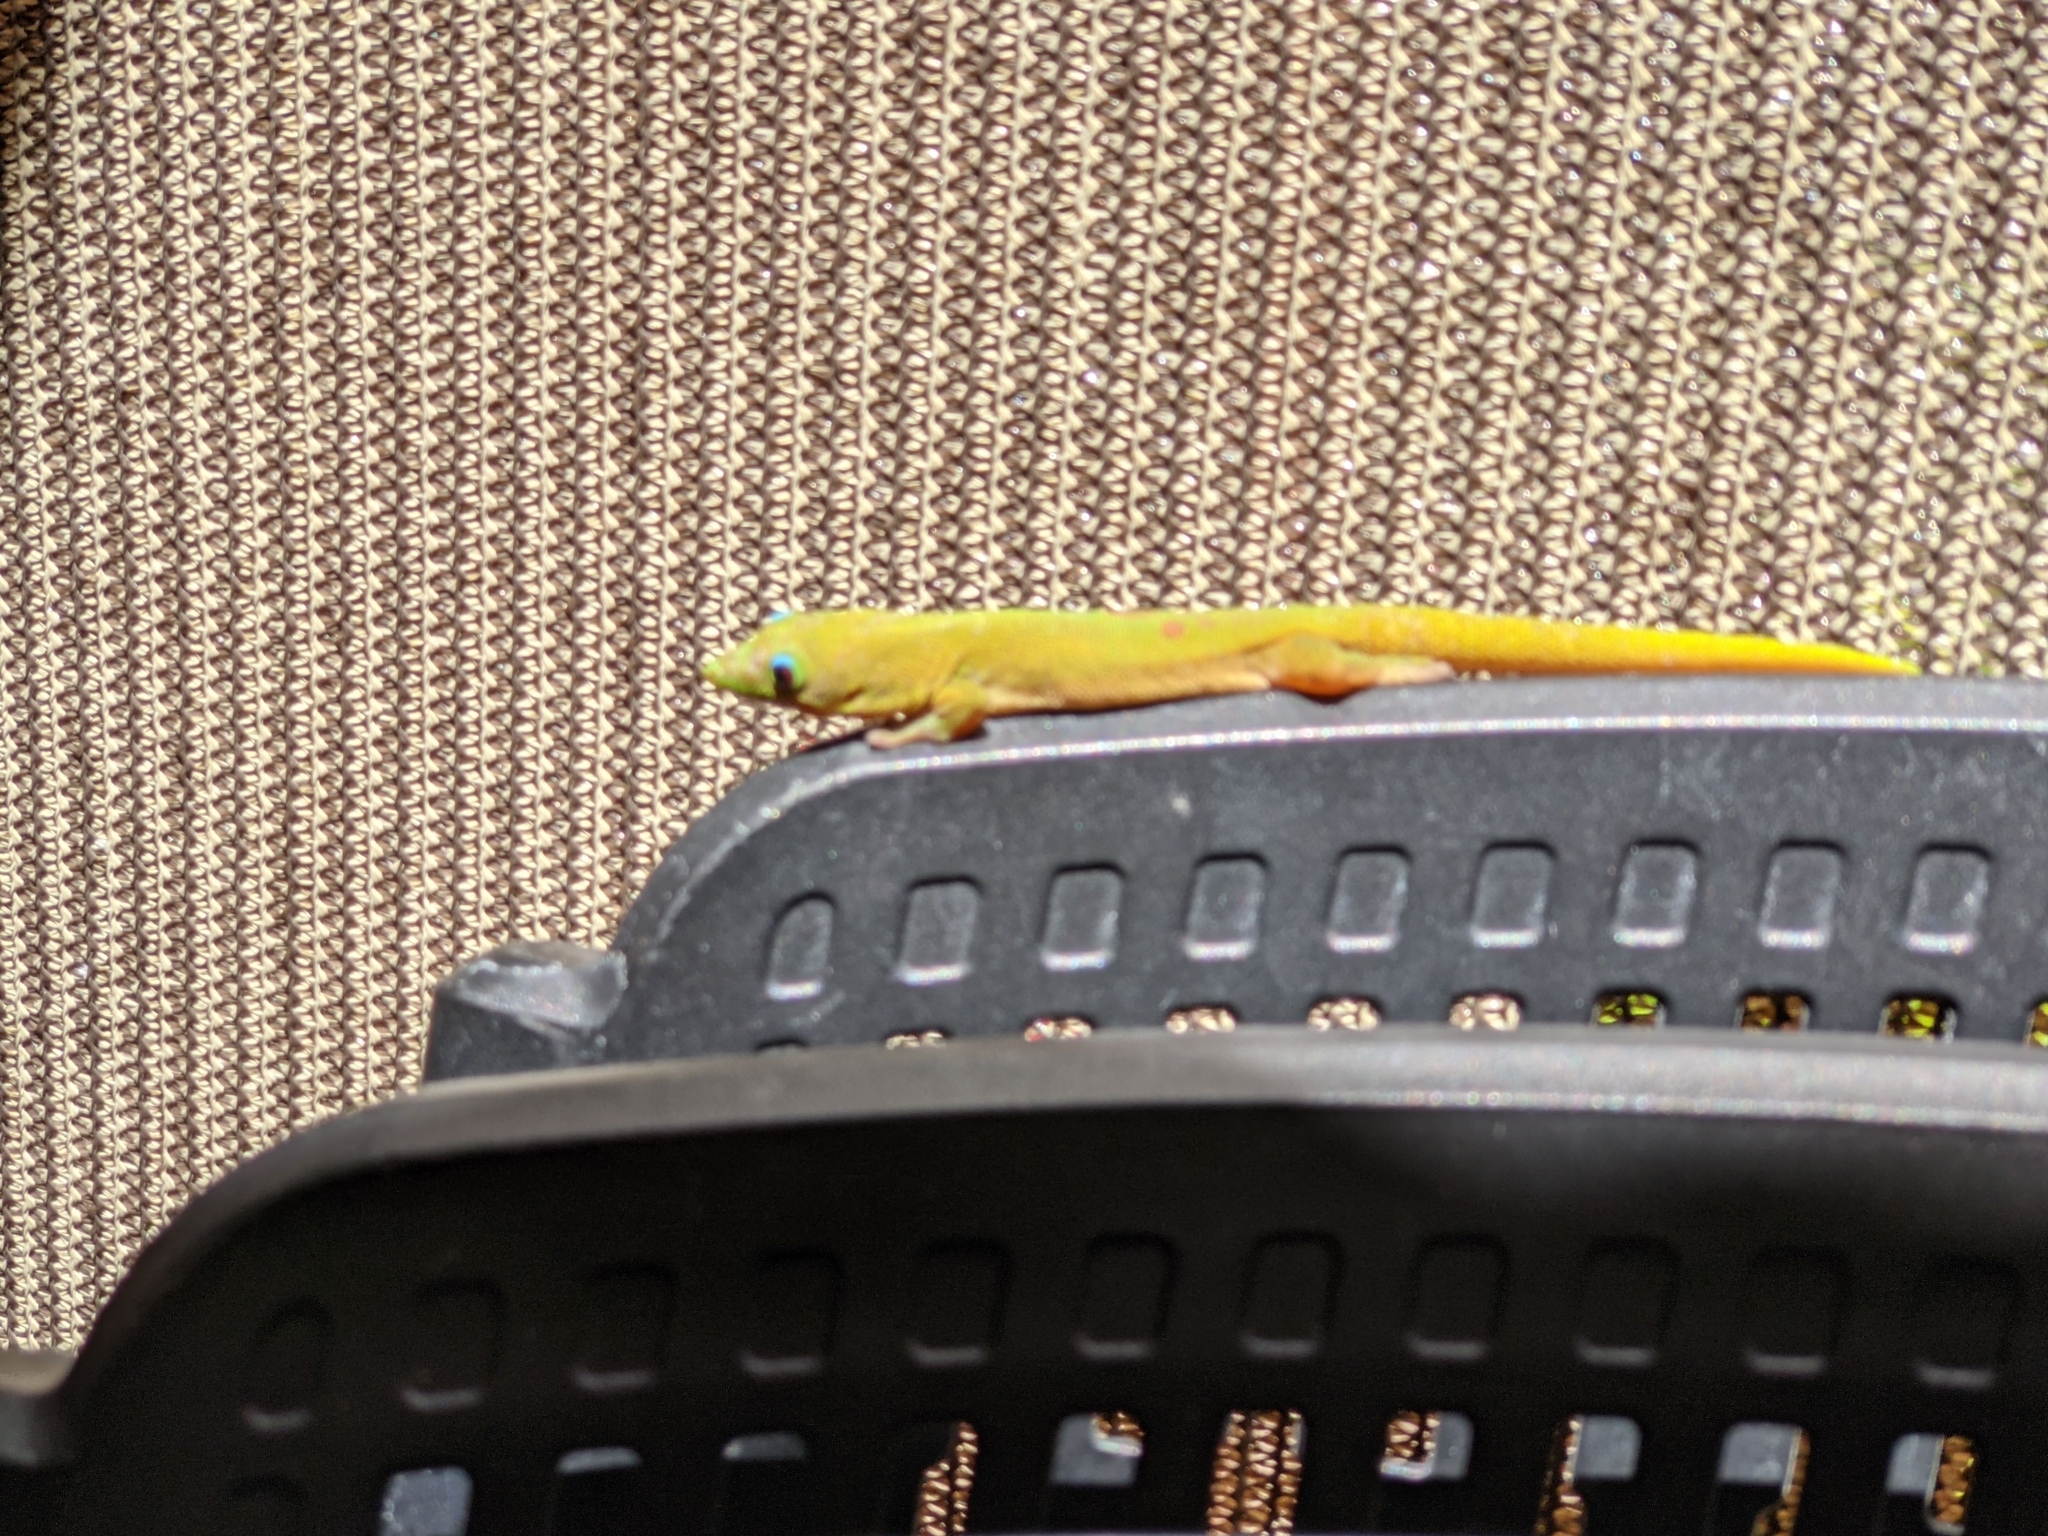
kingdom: Animalia
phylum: Chordata
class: Squamata
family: Gekkonidae
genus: Phelsuma
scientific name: Phelsuma laticauda
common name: Gold dust day gecko
